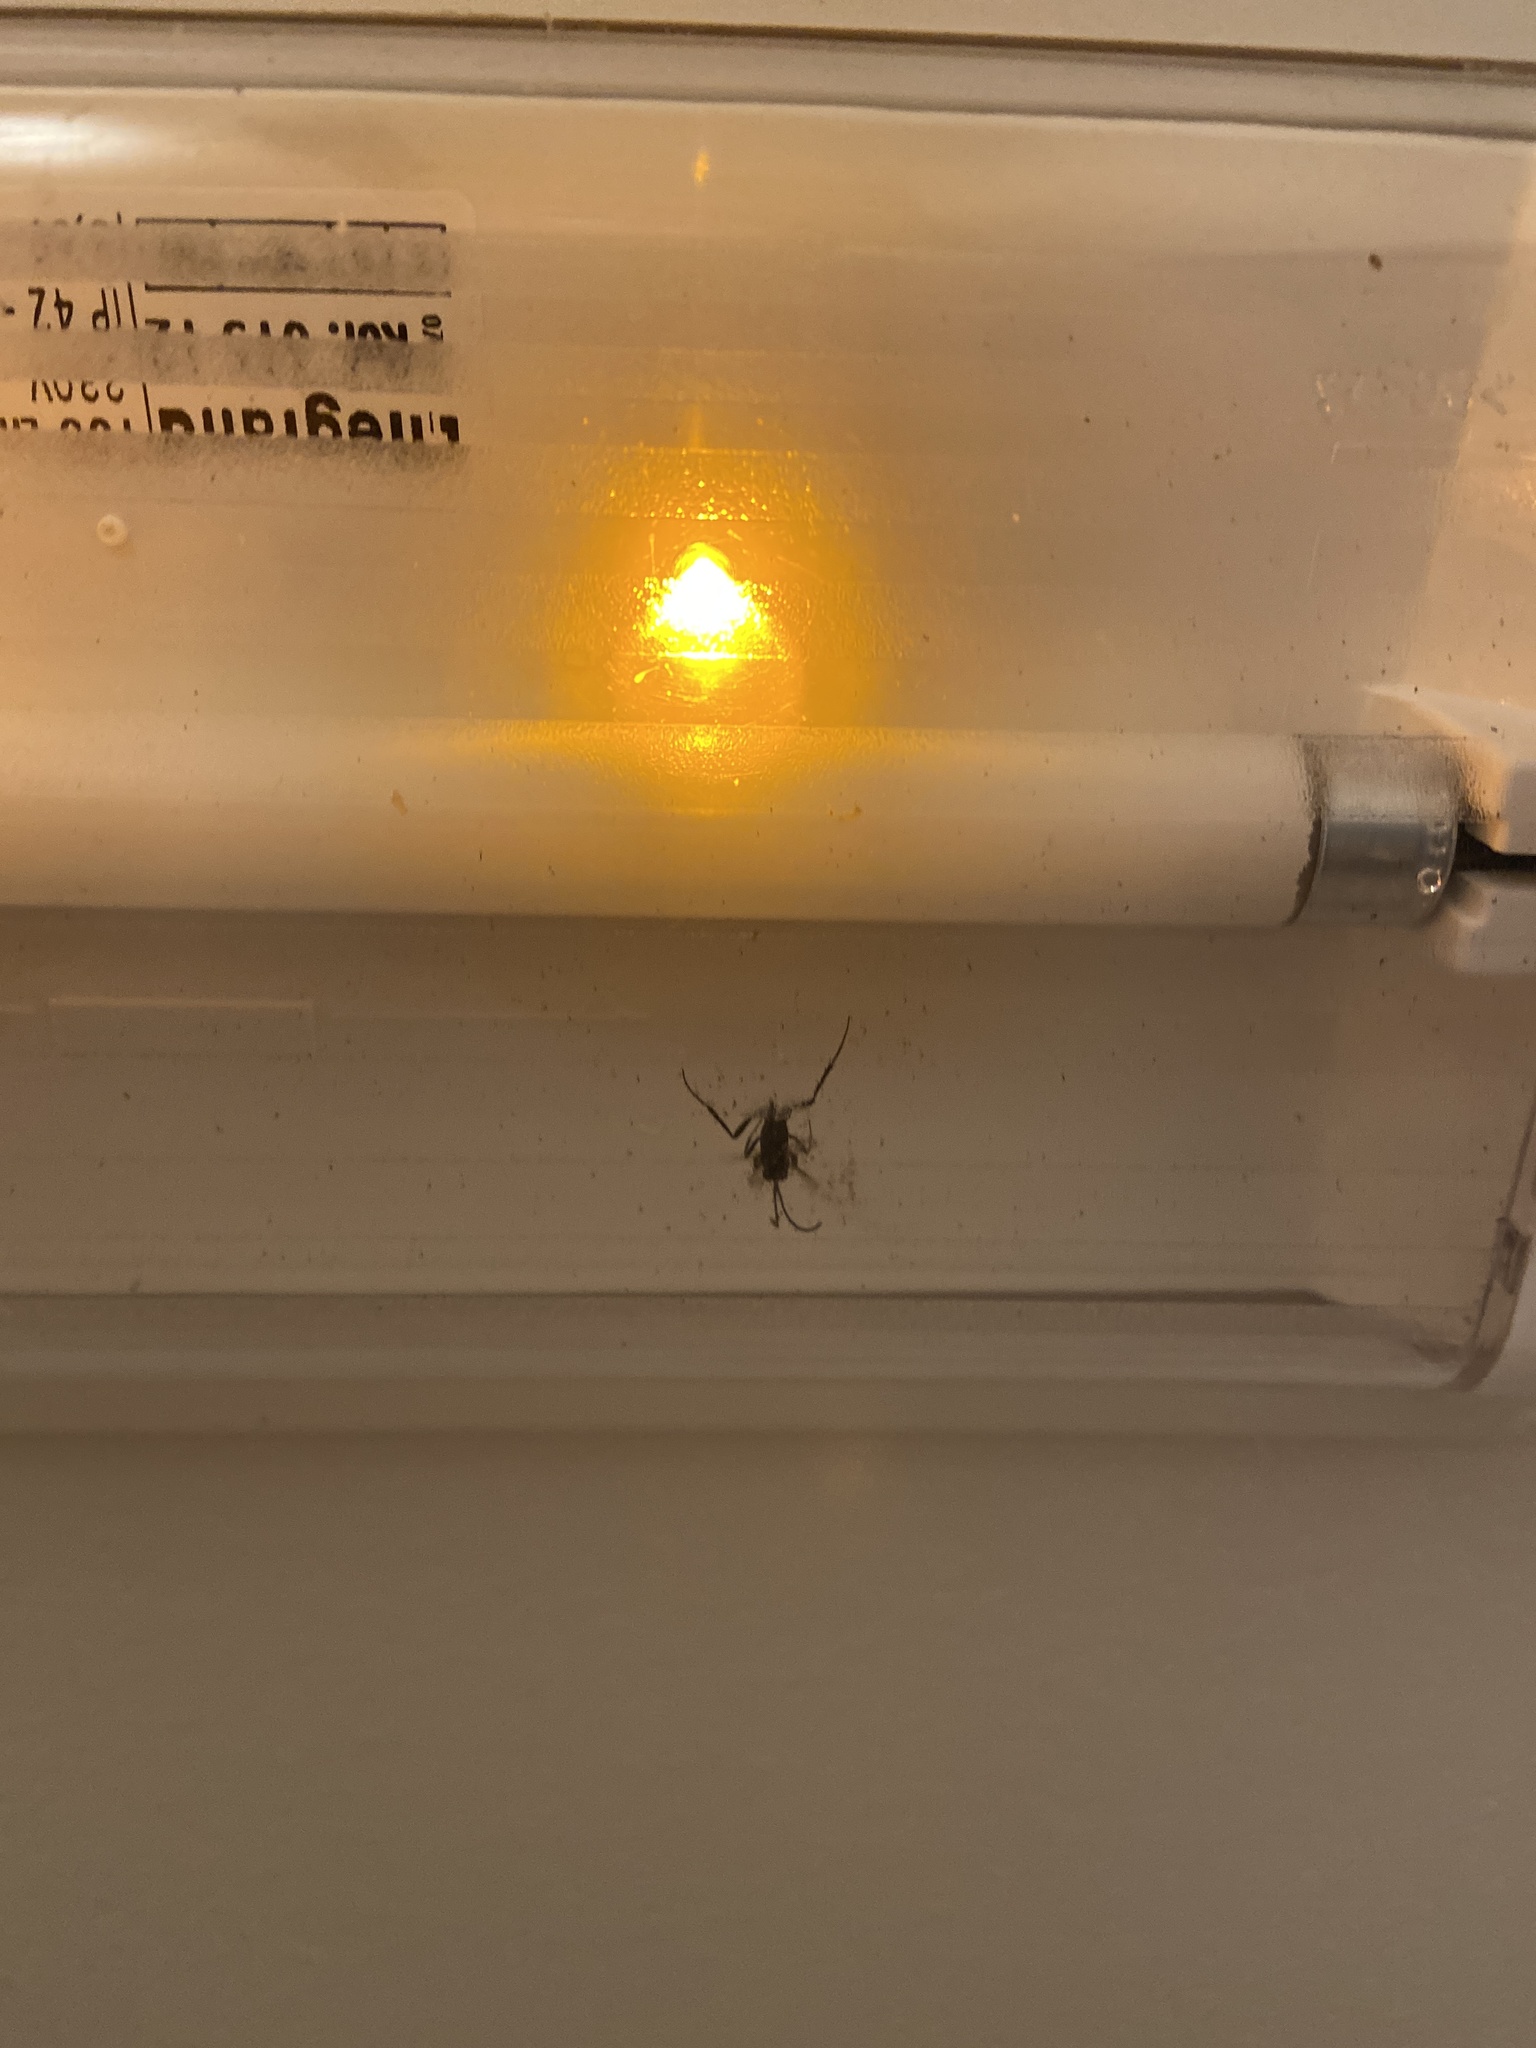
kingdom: Animalia
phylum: Arthropoda
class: Insecta
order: Hymenoptera
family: Evaniidae
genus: Evania
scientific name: Evania appendigaster
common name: Ensign wasp
